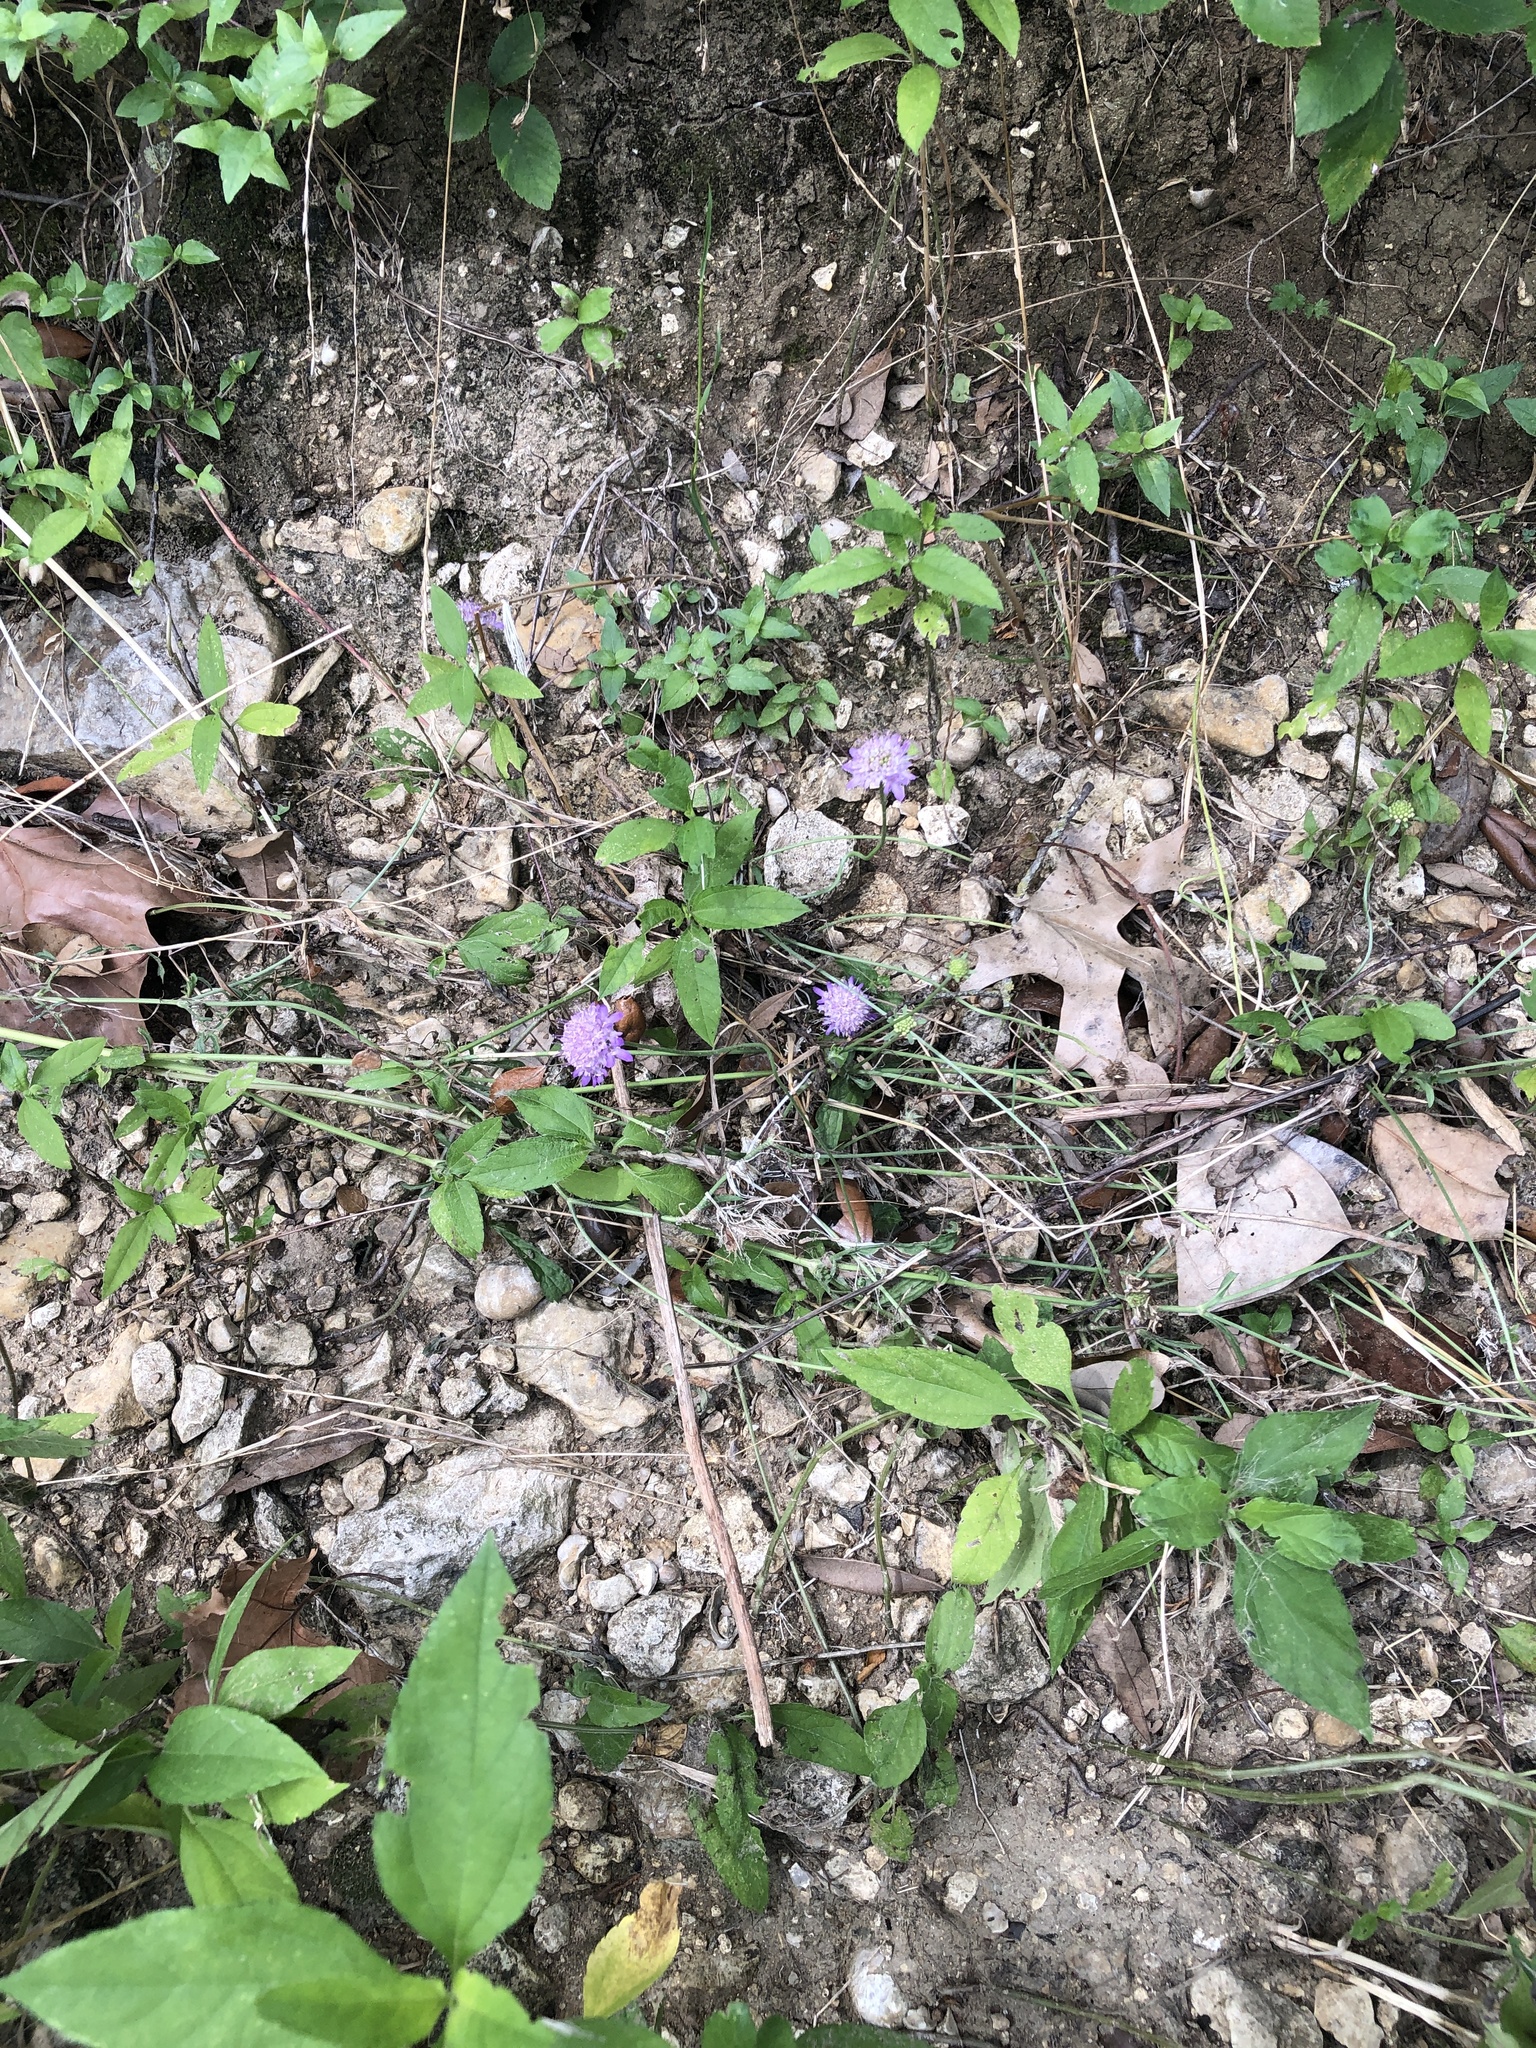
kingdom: Plantae
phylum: Tracheophyta
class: Magnoliopsida
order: Dipsacales
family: Caprifoliaceae
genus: Sixalix
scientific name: Sixalix atropurpurea
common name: Sweet scabious
